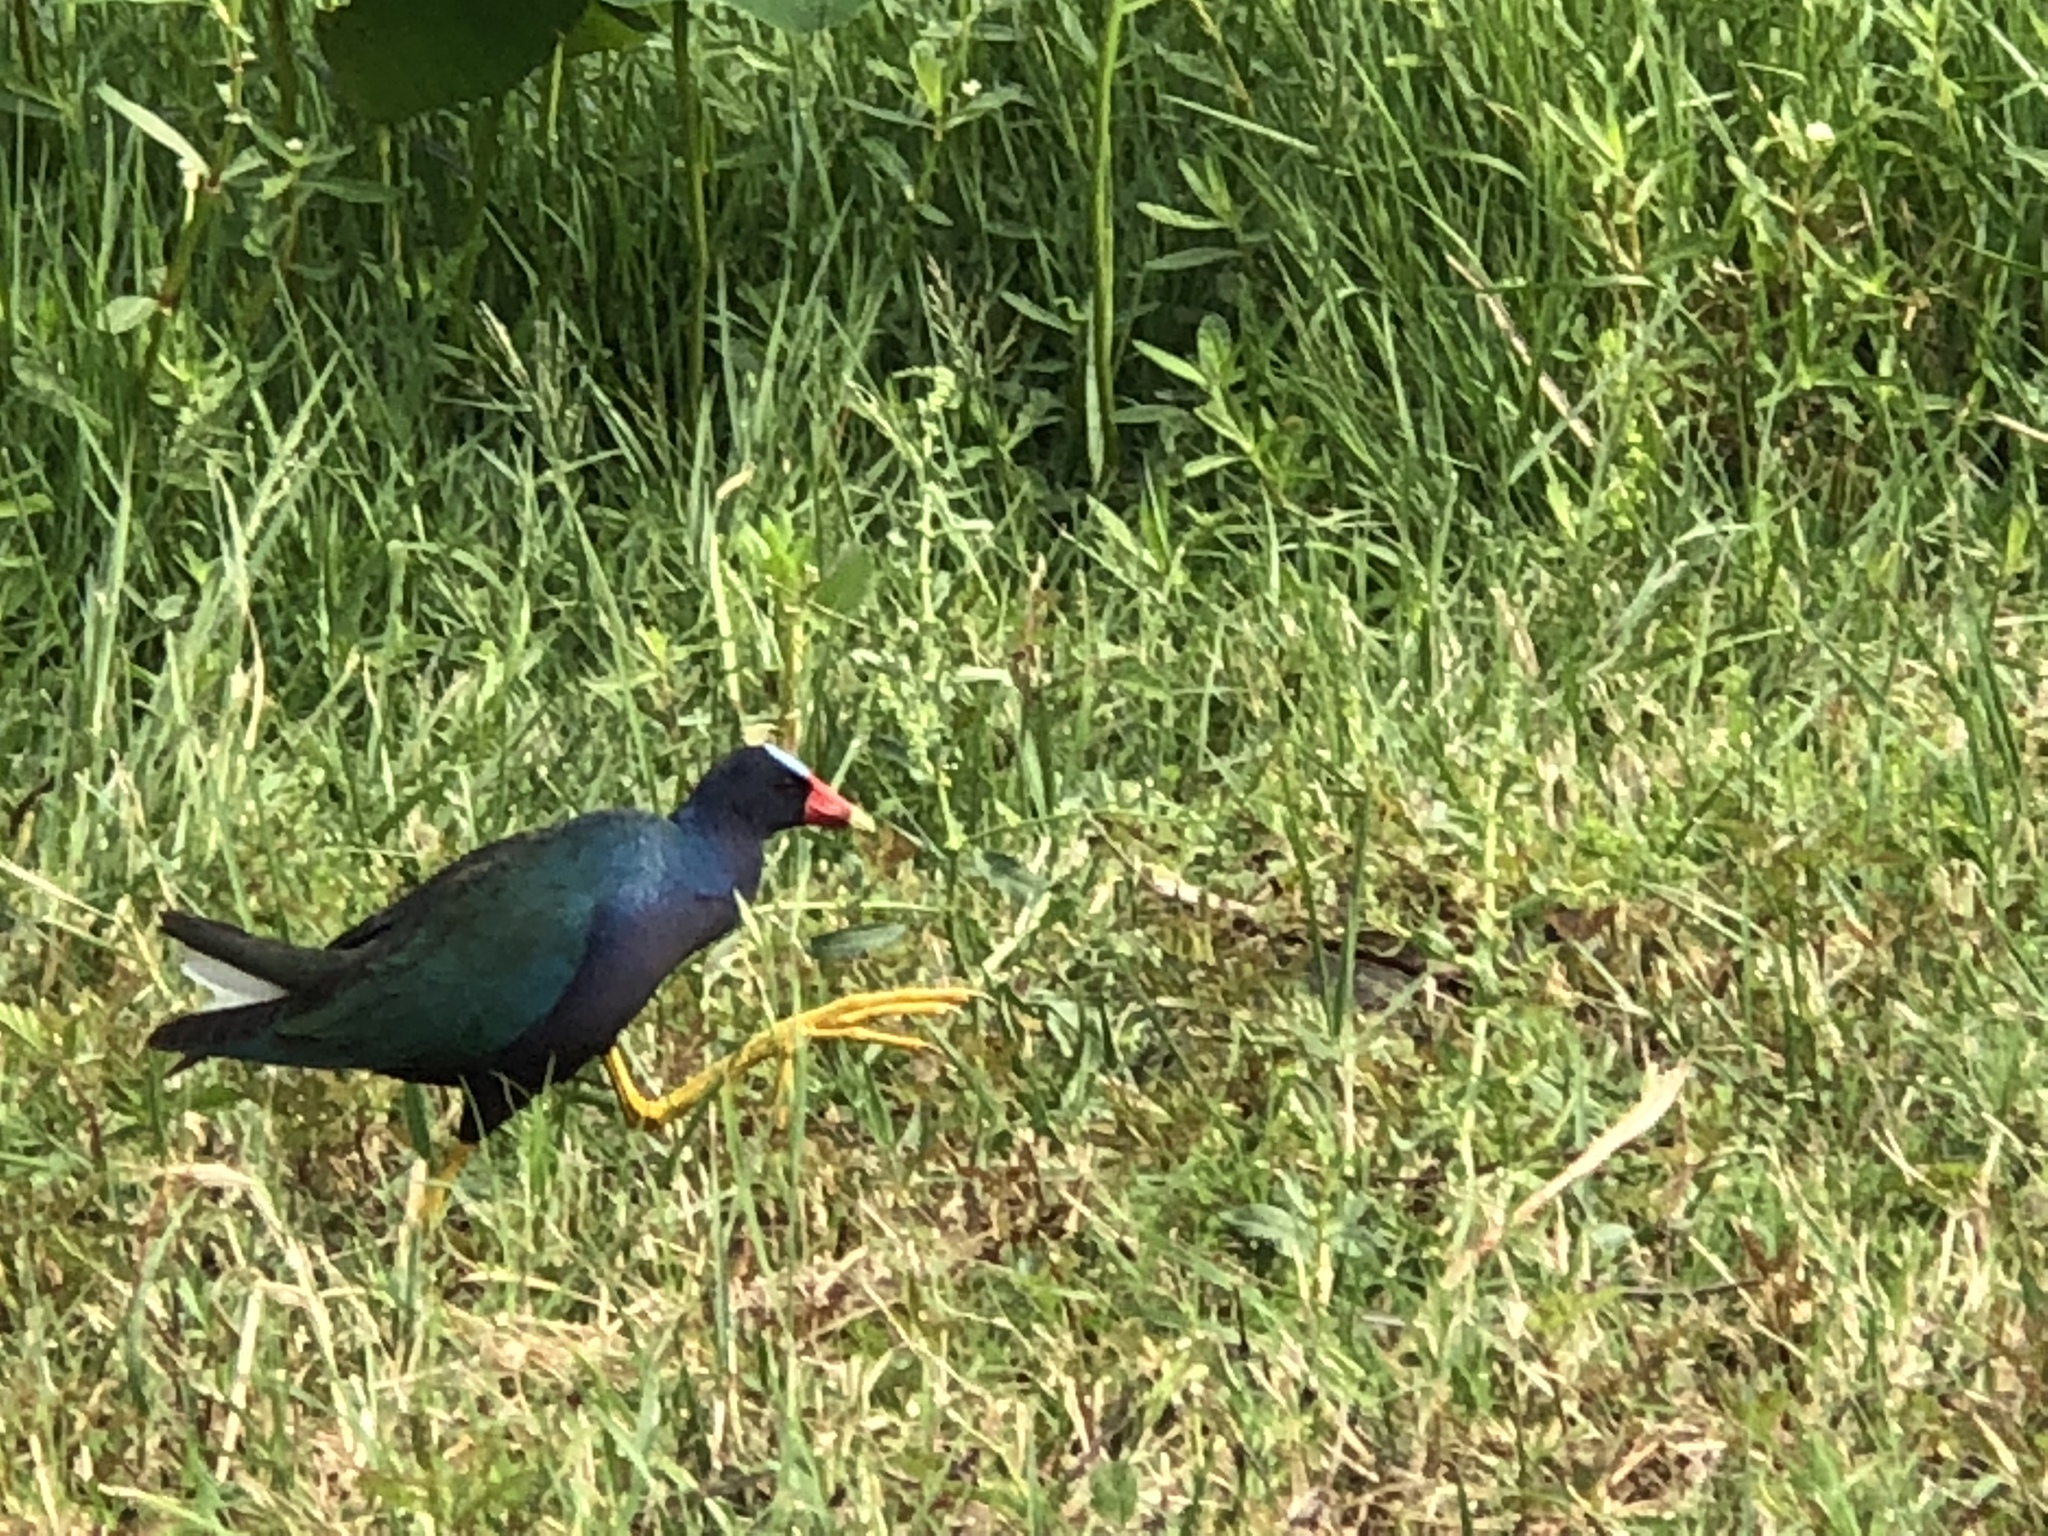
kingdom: Animalia
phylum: Chordata
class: Aves
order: Gruiformes
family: Rallidae
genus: Porphyrio
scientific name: Porphyrio martinica
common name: Purple gallinule
